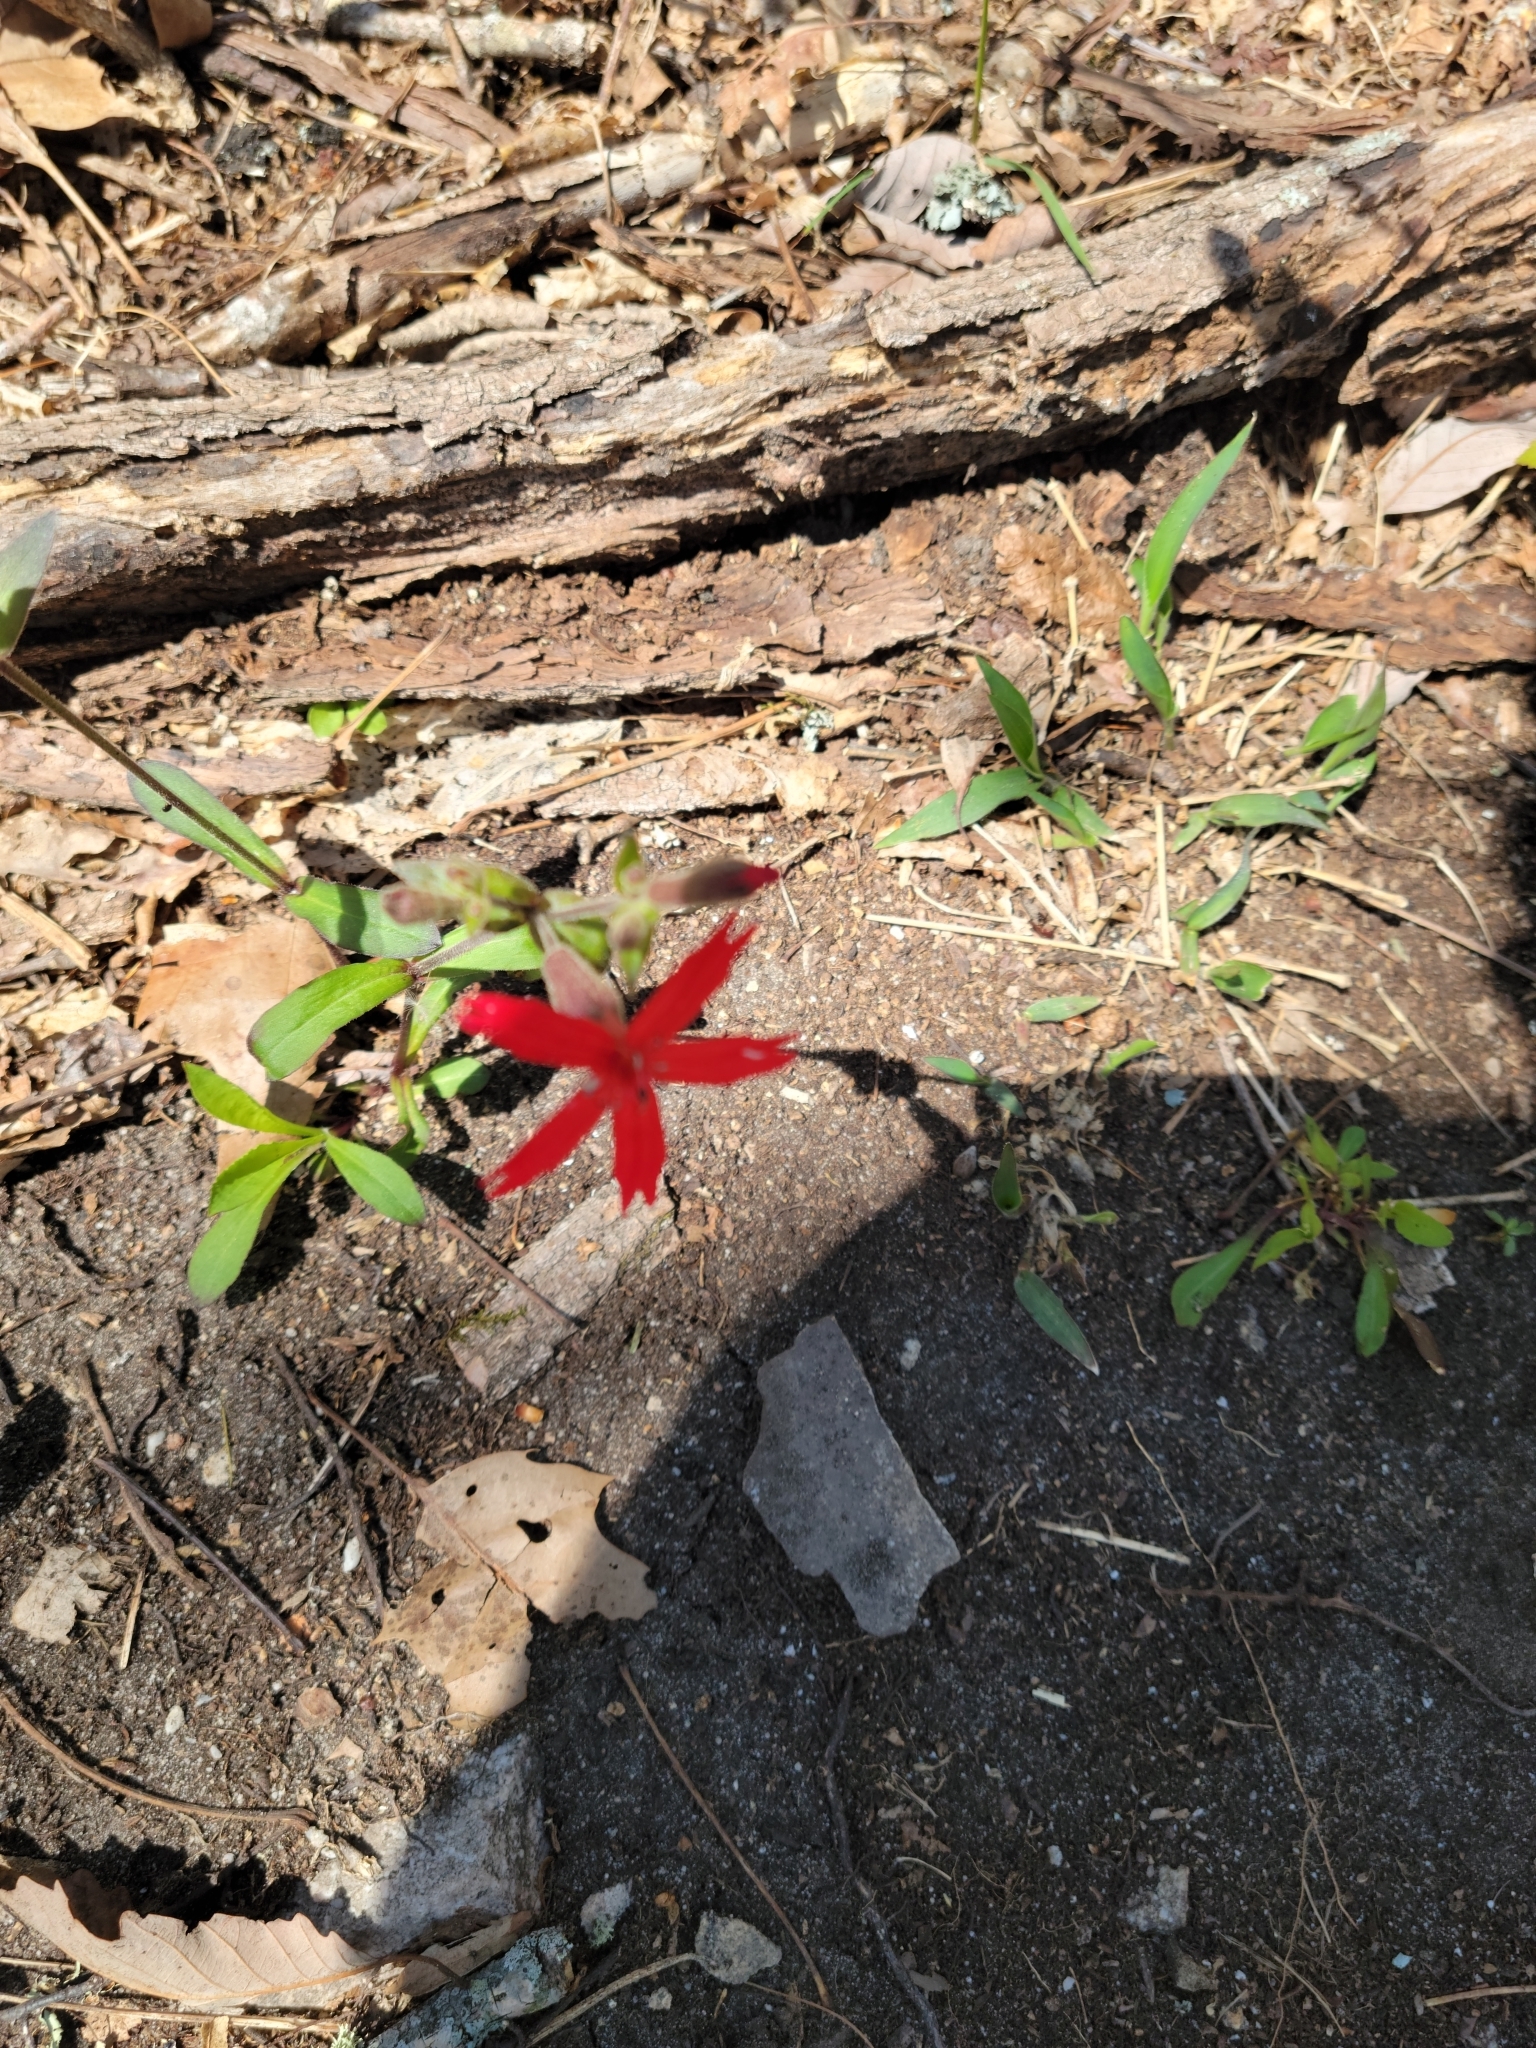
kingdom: Plantae
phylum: Tracheophyta
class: Magnoliopsida
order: Caryophyllales
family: Caryophyllaceae
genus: Silene
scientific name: Silene virginica
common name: Fire-pink
